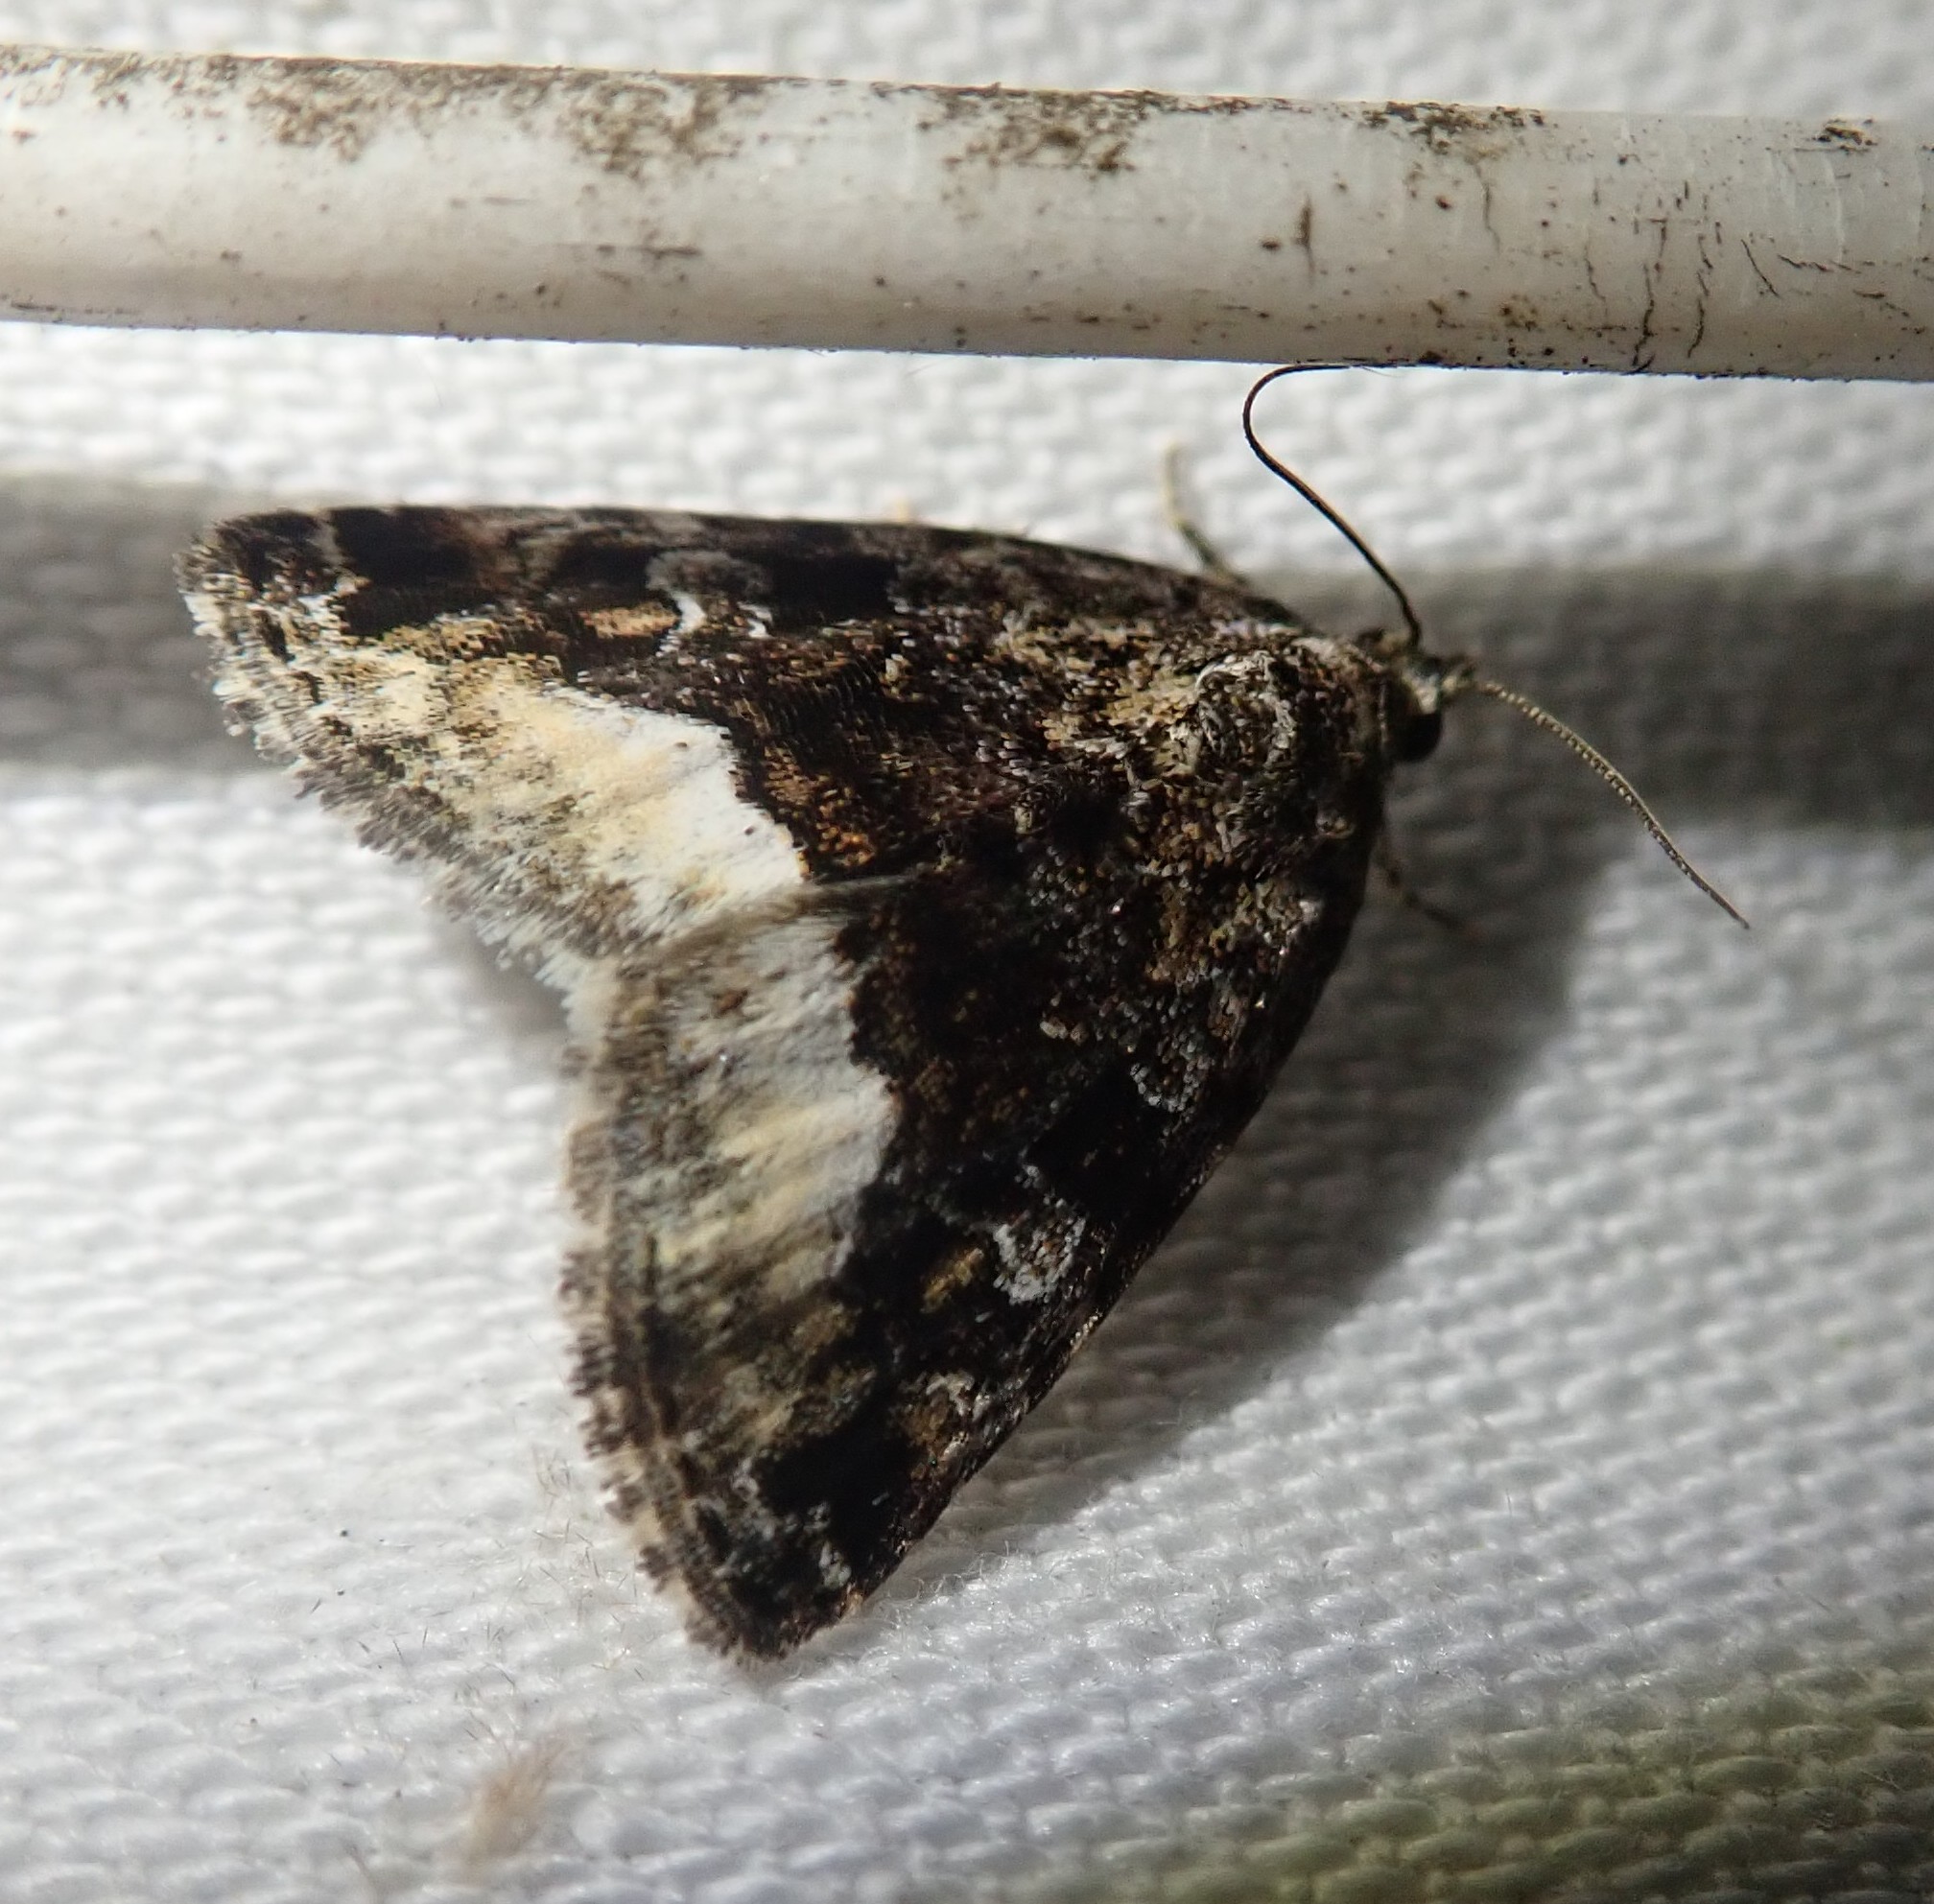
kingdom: Animalia
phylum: Arthropoda
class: Insecta
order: Lepidoptera
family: Noctuidae
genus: Deltote
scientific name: Deltote pygarga
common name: Marbled white spot
